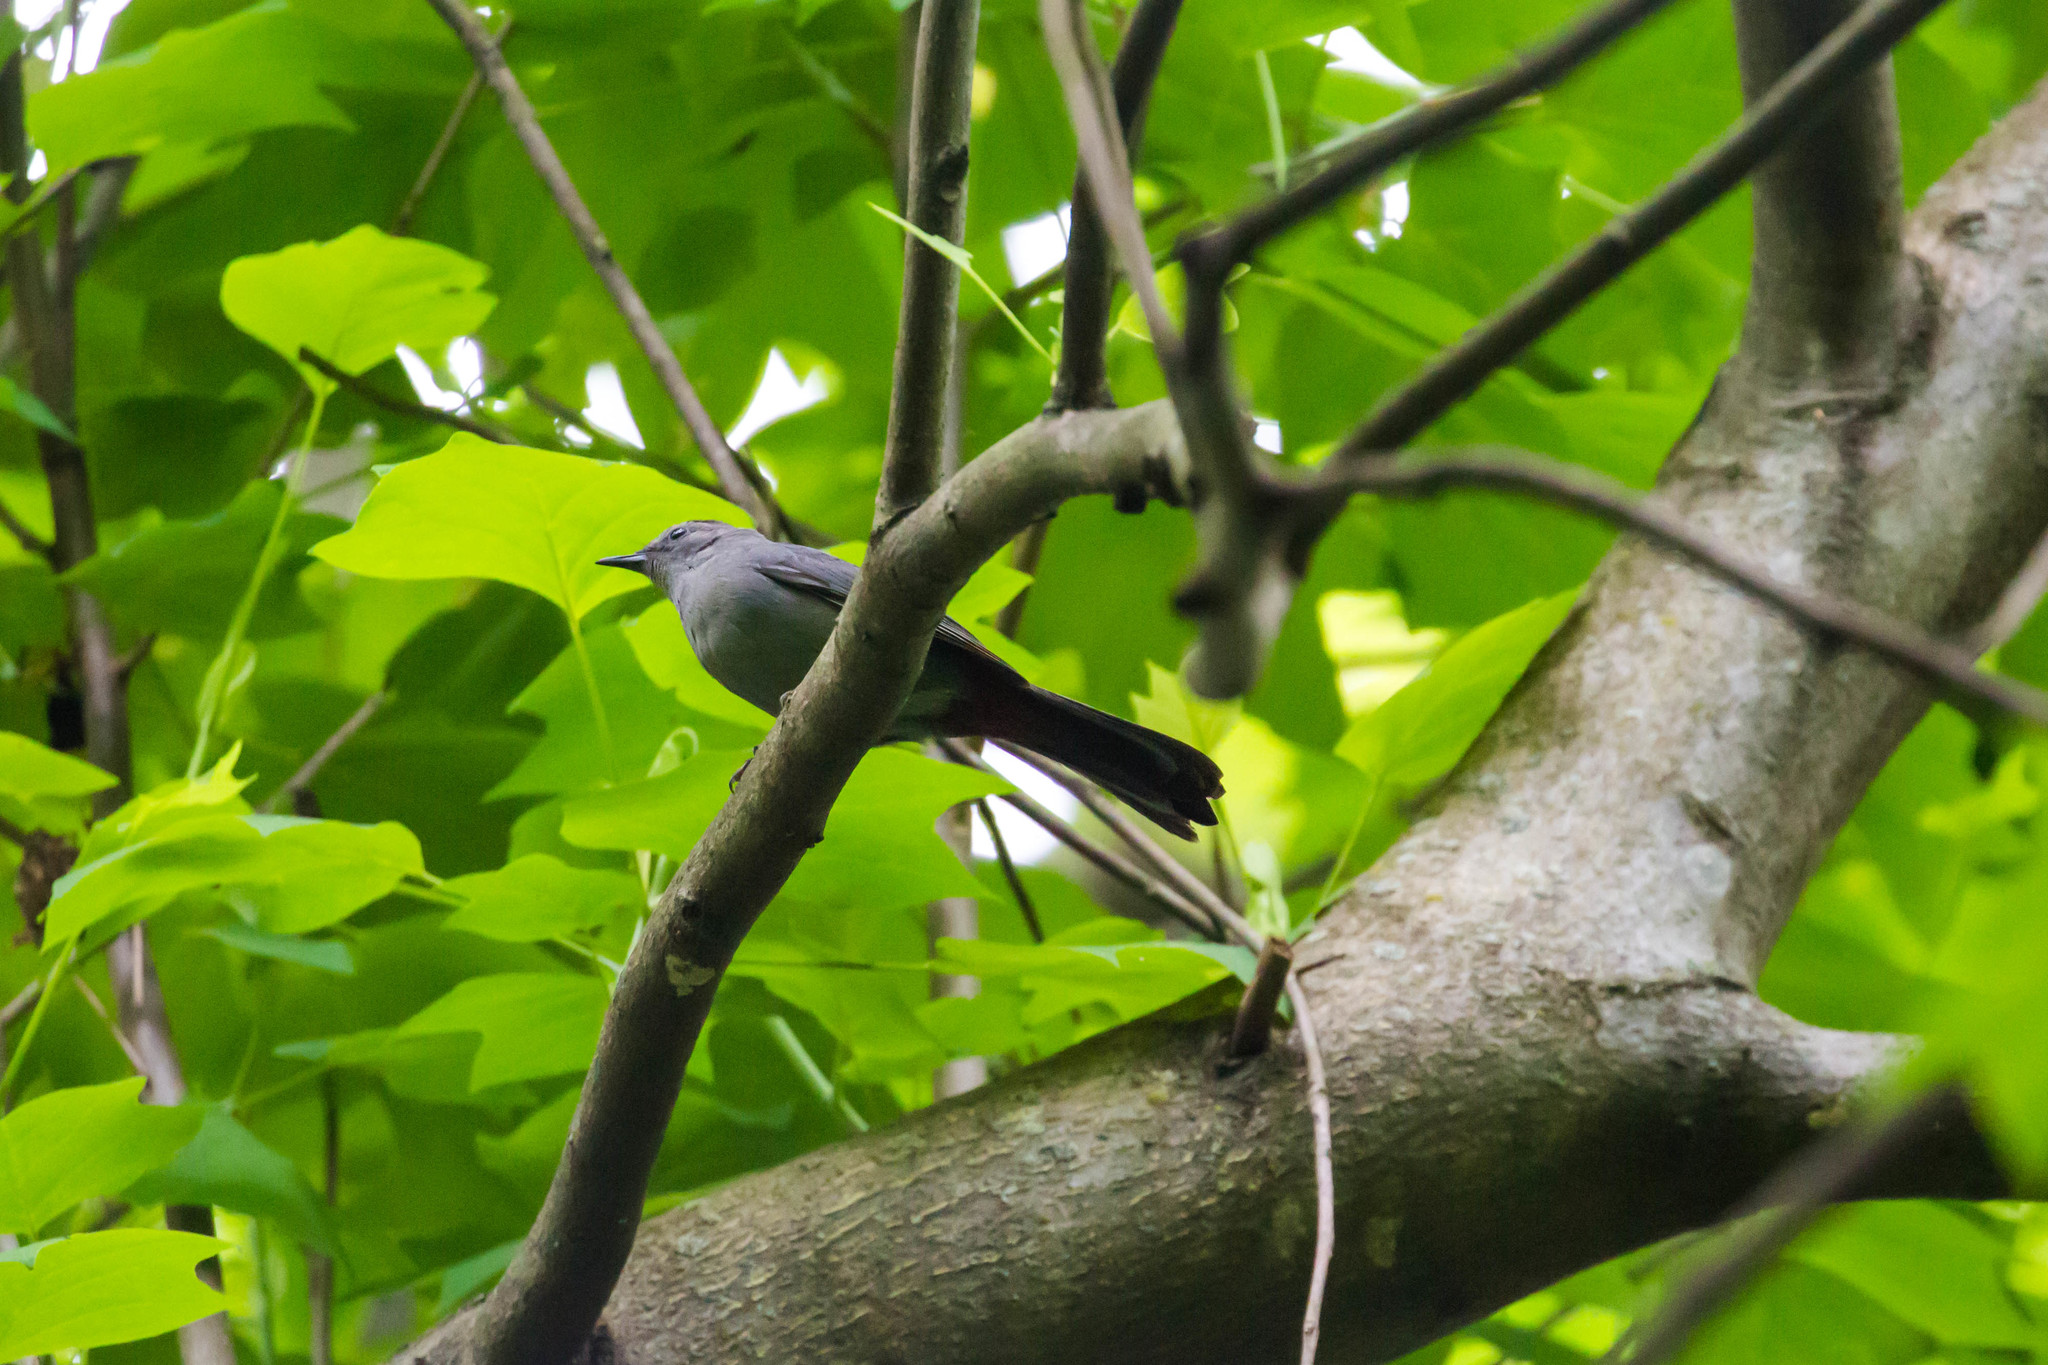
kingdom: Animalia
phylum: Chordata
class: Aves
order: Passeriformes
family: Mimidae
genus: Dumetella
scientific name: Dumetella carolinensis
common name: Gray catbird
